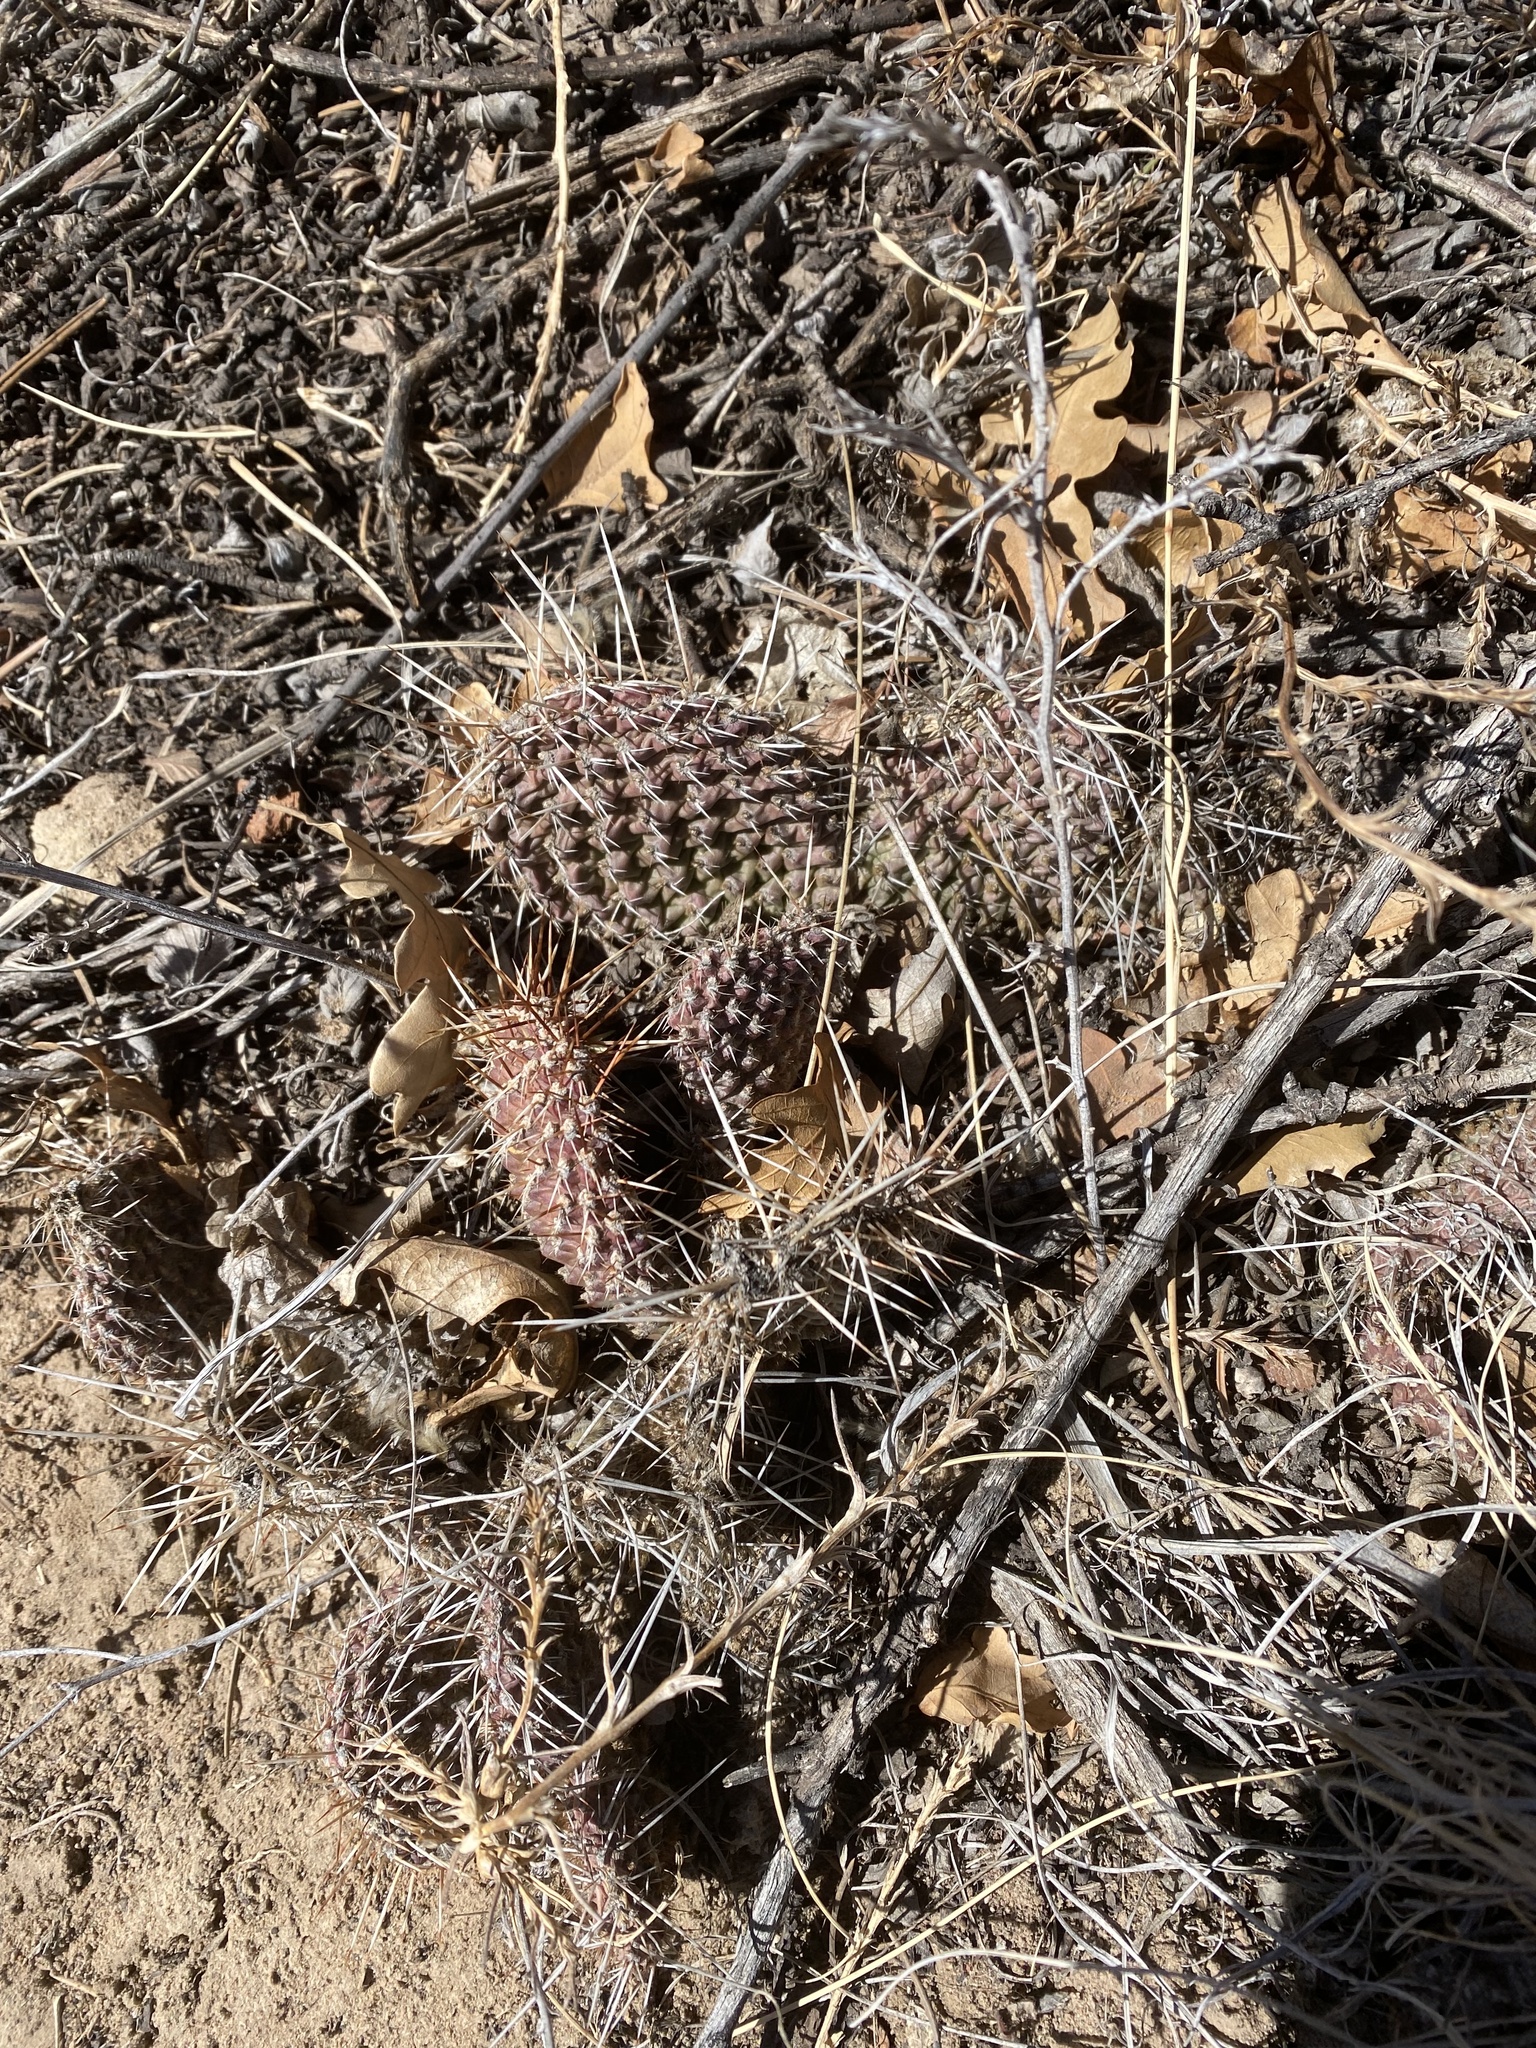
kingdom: Plantae
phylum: Tracheophyta
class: Magnoliopsida
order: Caryophyllales
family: Cactaceae
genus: Opuntia
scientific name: Opuntia polyacantha
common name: Plains prickly-pear
